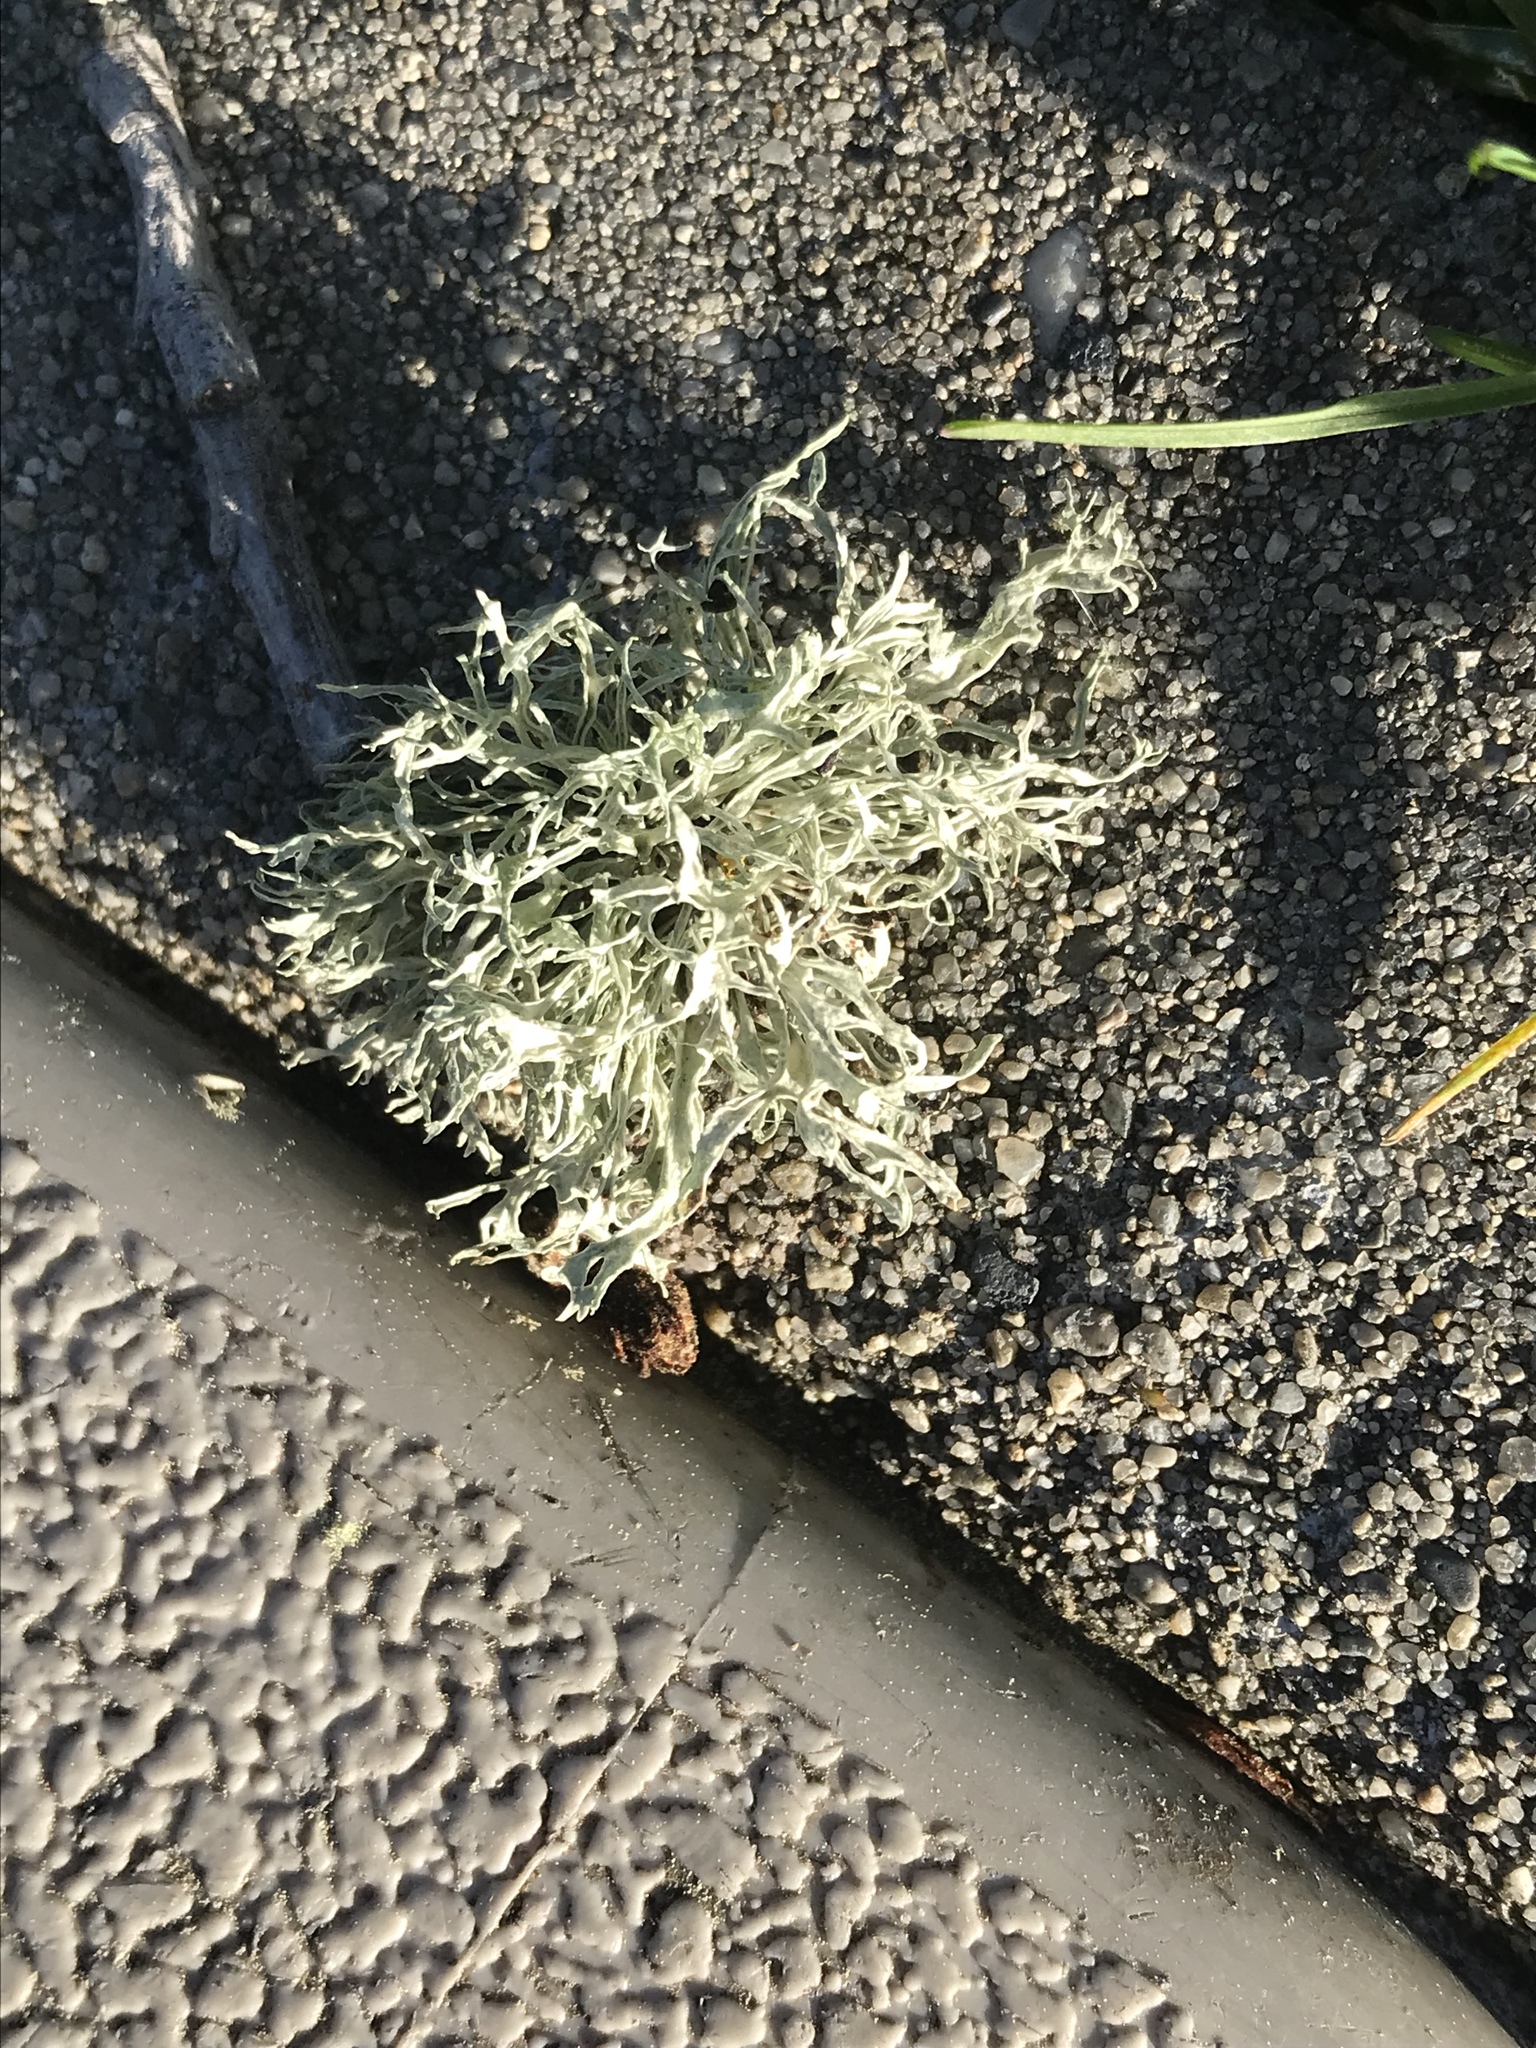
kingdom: Fungi
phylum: Ascomycota
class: Lecanoromycetes
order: Lecanorales
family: Parmeliaceae
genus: Evernia
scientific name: Evernia prunastri
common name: Oak moss
